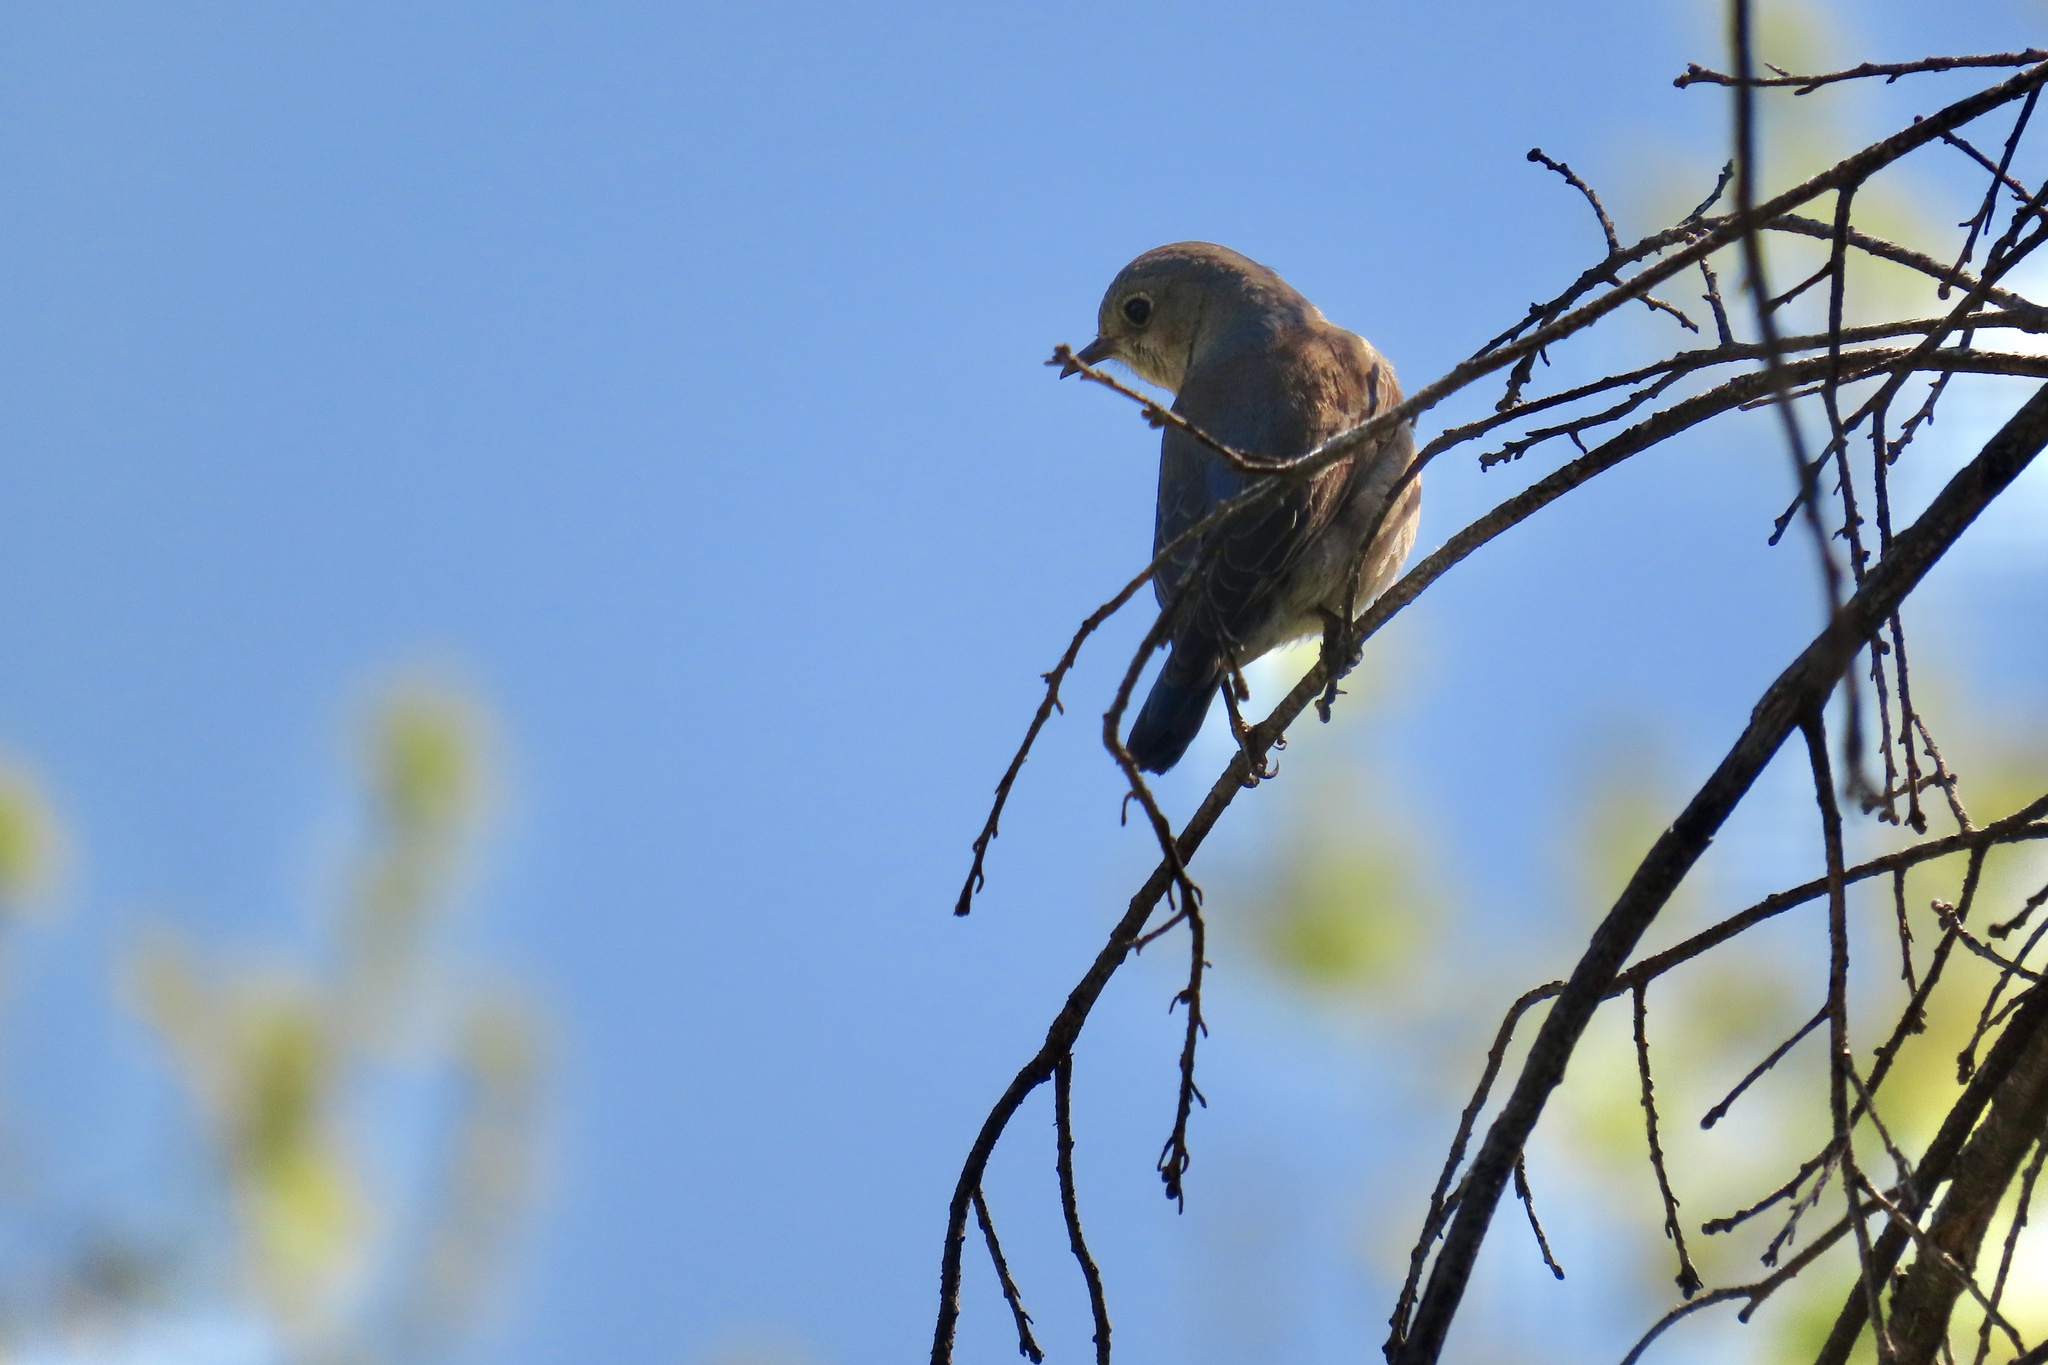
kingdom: Animalia
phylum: Chordata
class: Aves
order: Passeriformes
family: Turdidae
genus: Sialia
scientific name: Sialia mexicana
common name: Western bluebird
